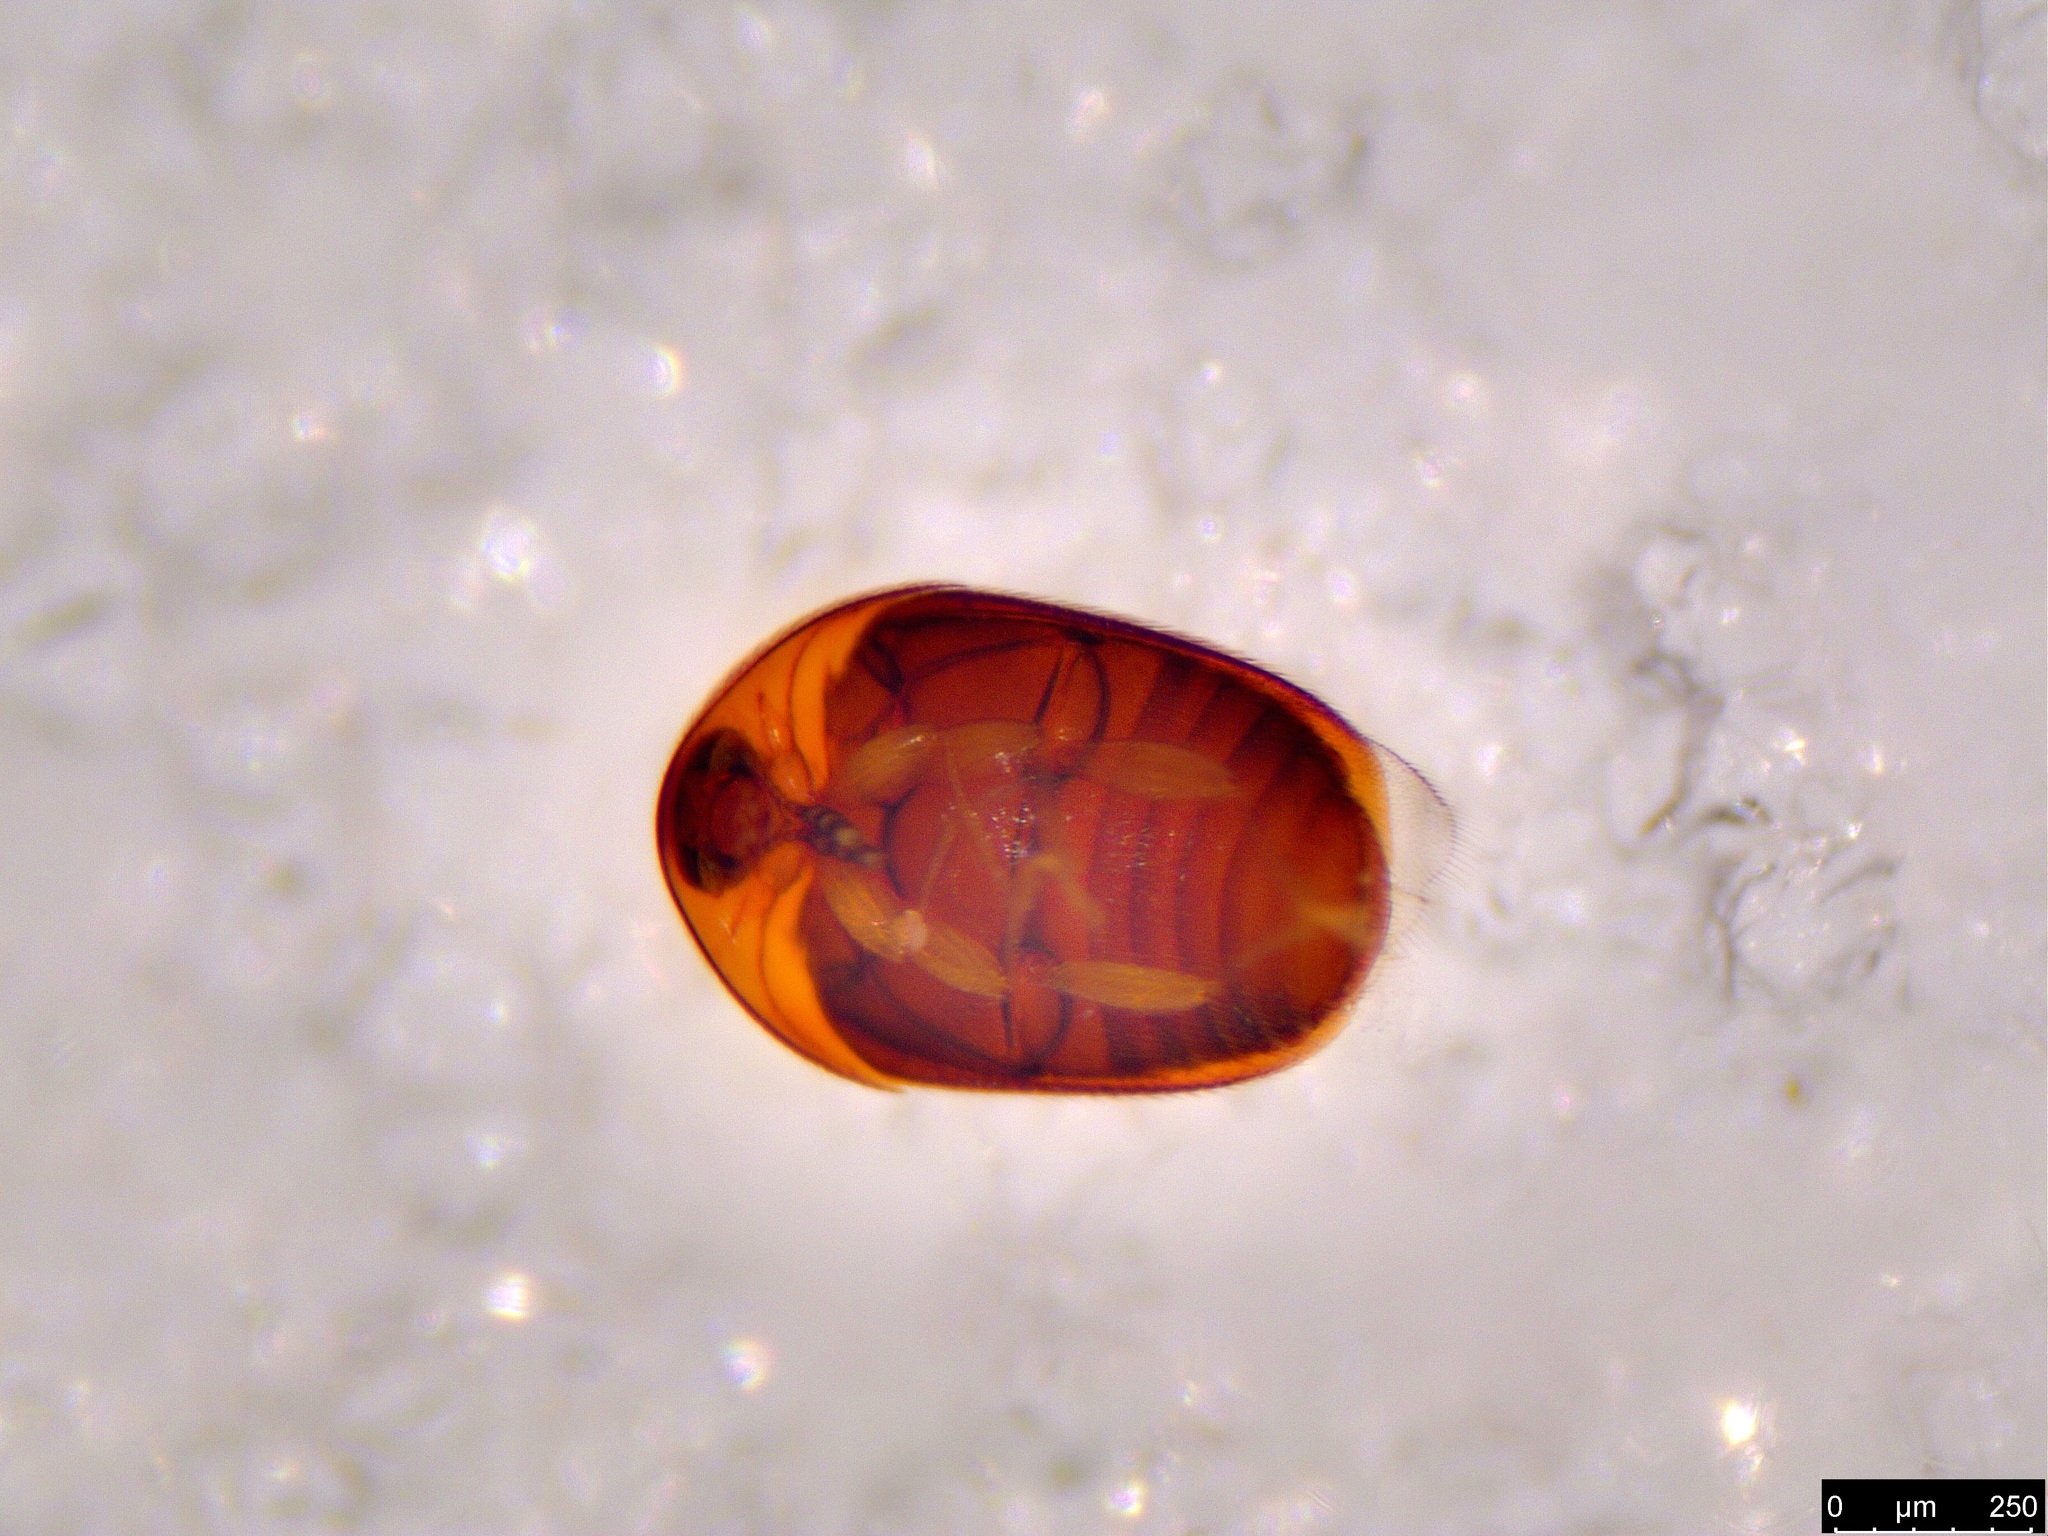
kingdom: Animalia
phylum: Arthropoda
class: Insecta
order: Coleoptera
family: Corylophidae
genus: Sericoderus
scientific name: Sericoderus
